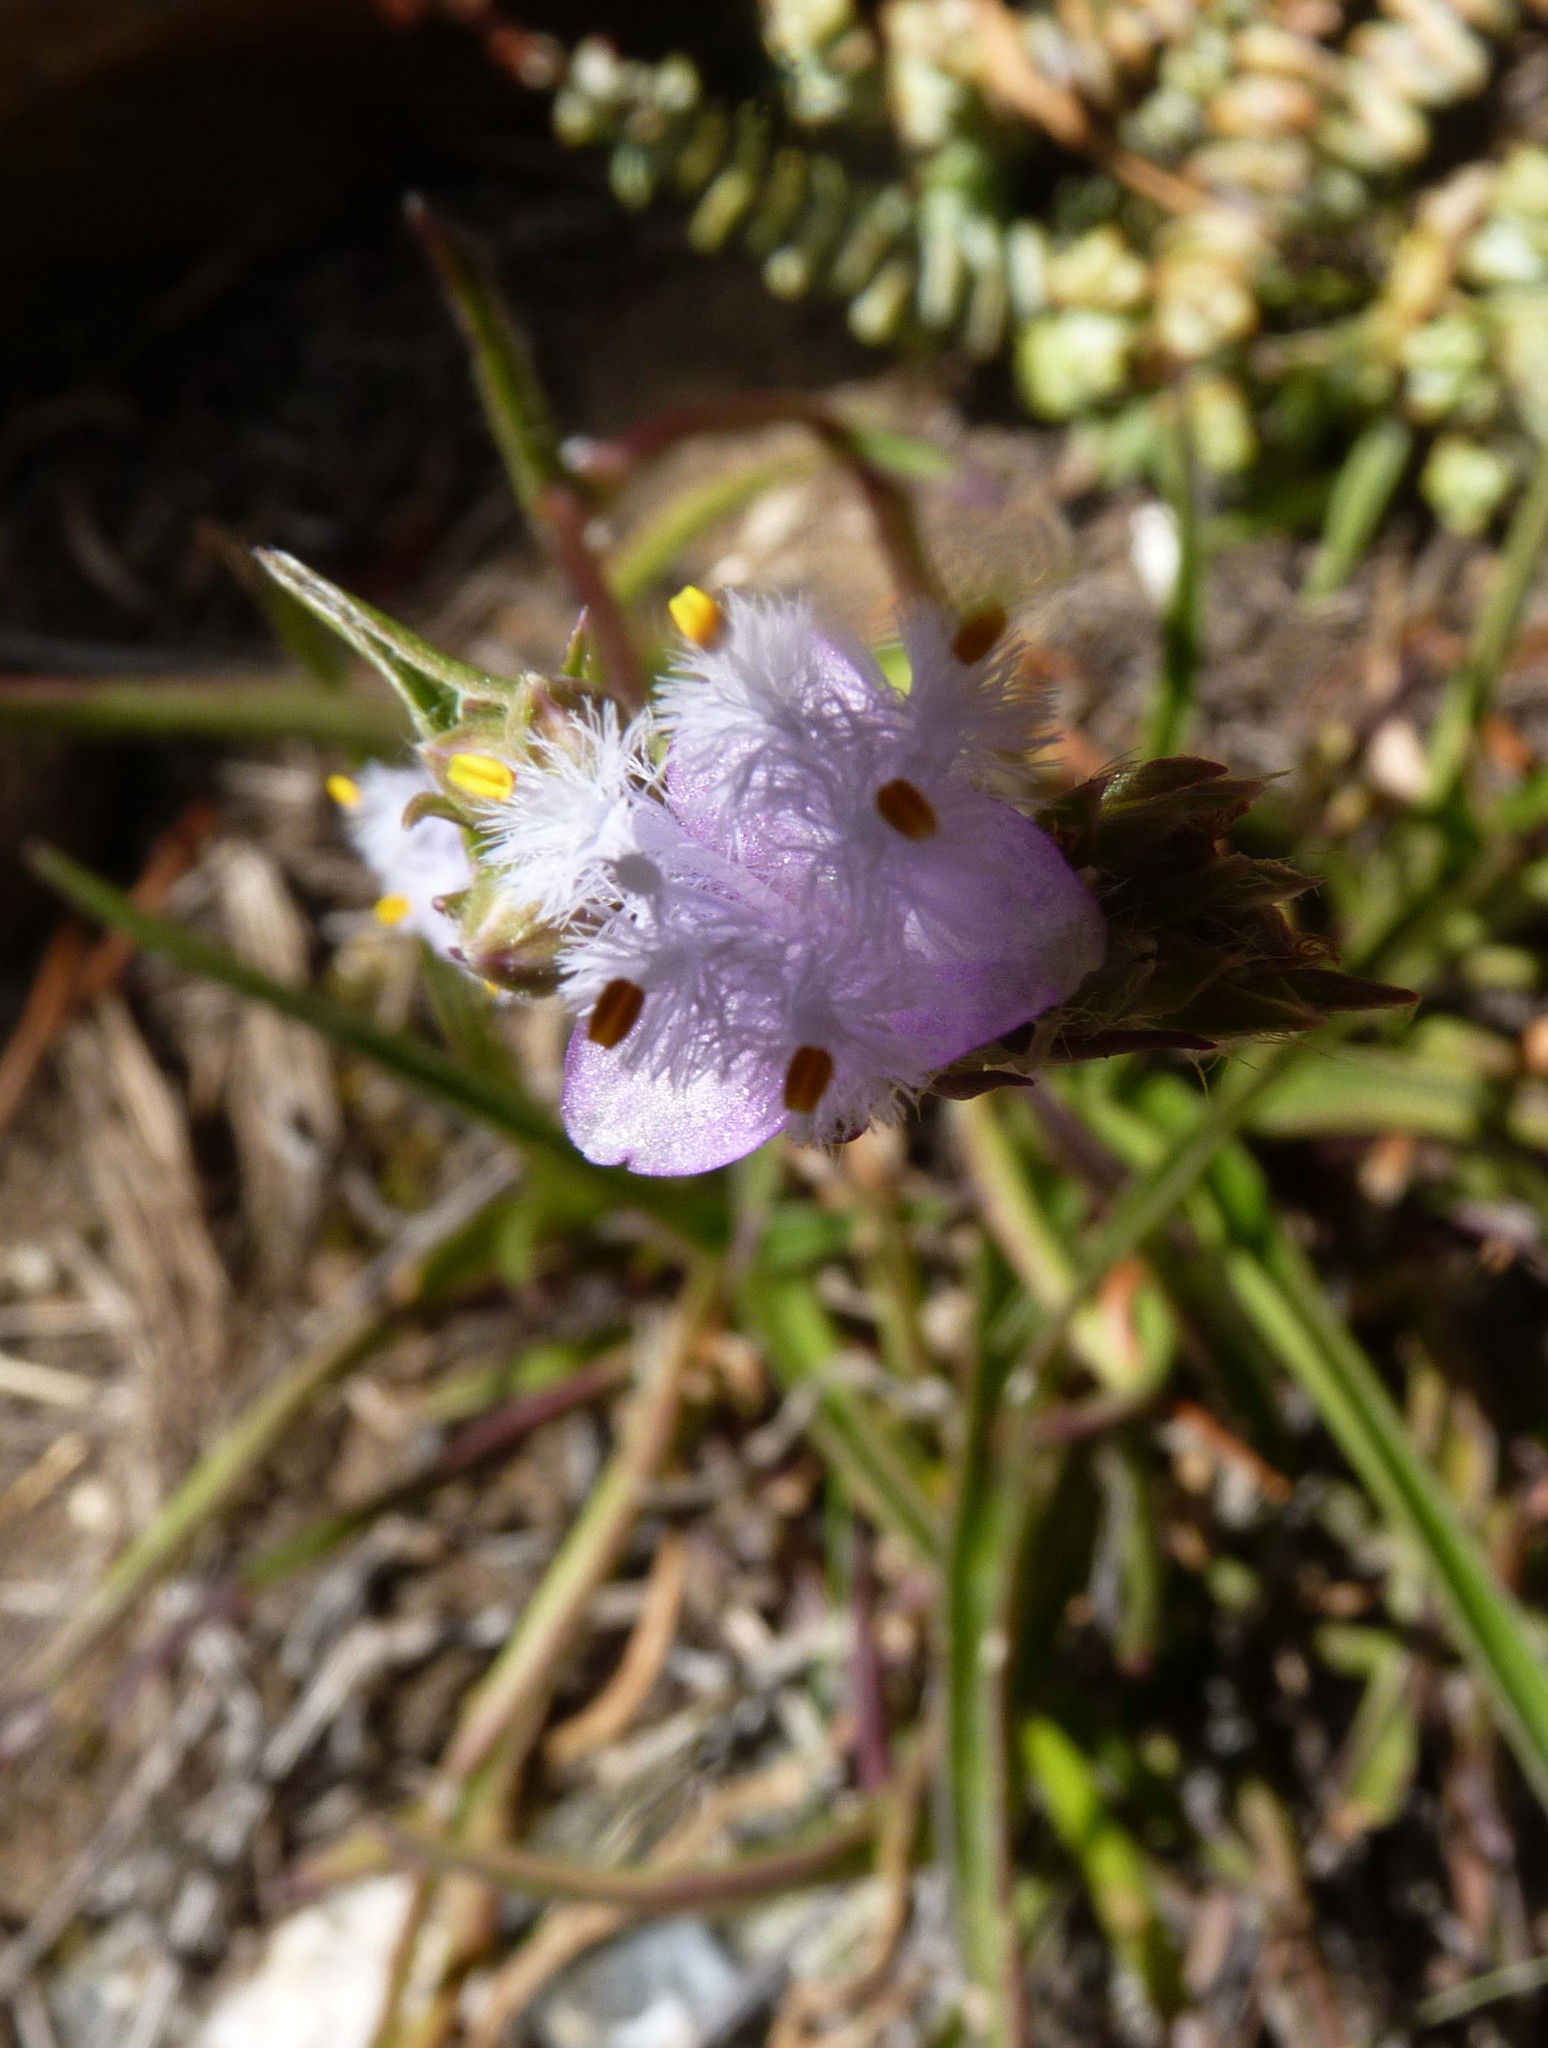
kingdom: Plantae
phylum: Tracheophyta
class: Liliopsida
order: Commelinales
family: Commelinaceae
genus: Cyanotis
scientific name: Cyanotis speciosa
